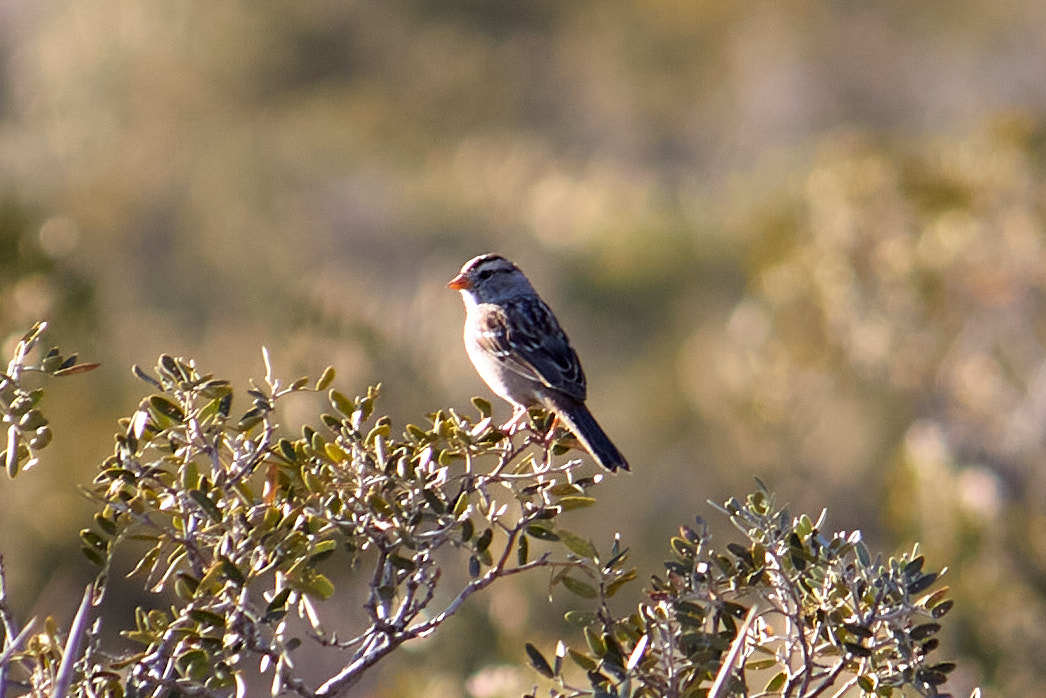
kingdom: Animalia
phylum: Chordata
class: Aves
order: Passeriformes
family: Passerellidae
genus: Zonotrichia
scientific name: Zonotrichia leucophrys
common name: White-crowned sparrow
